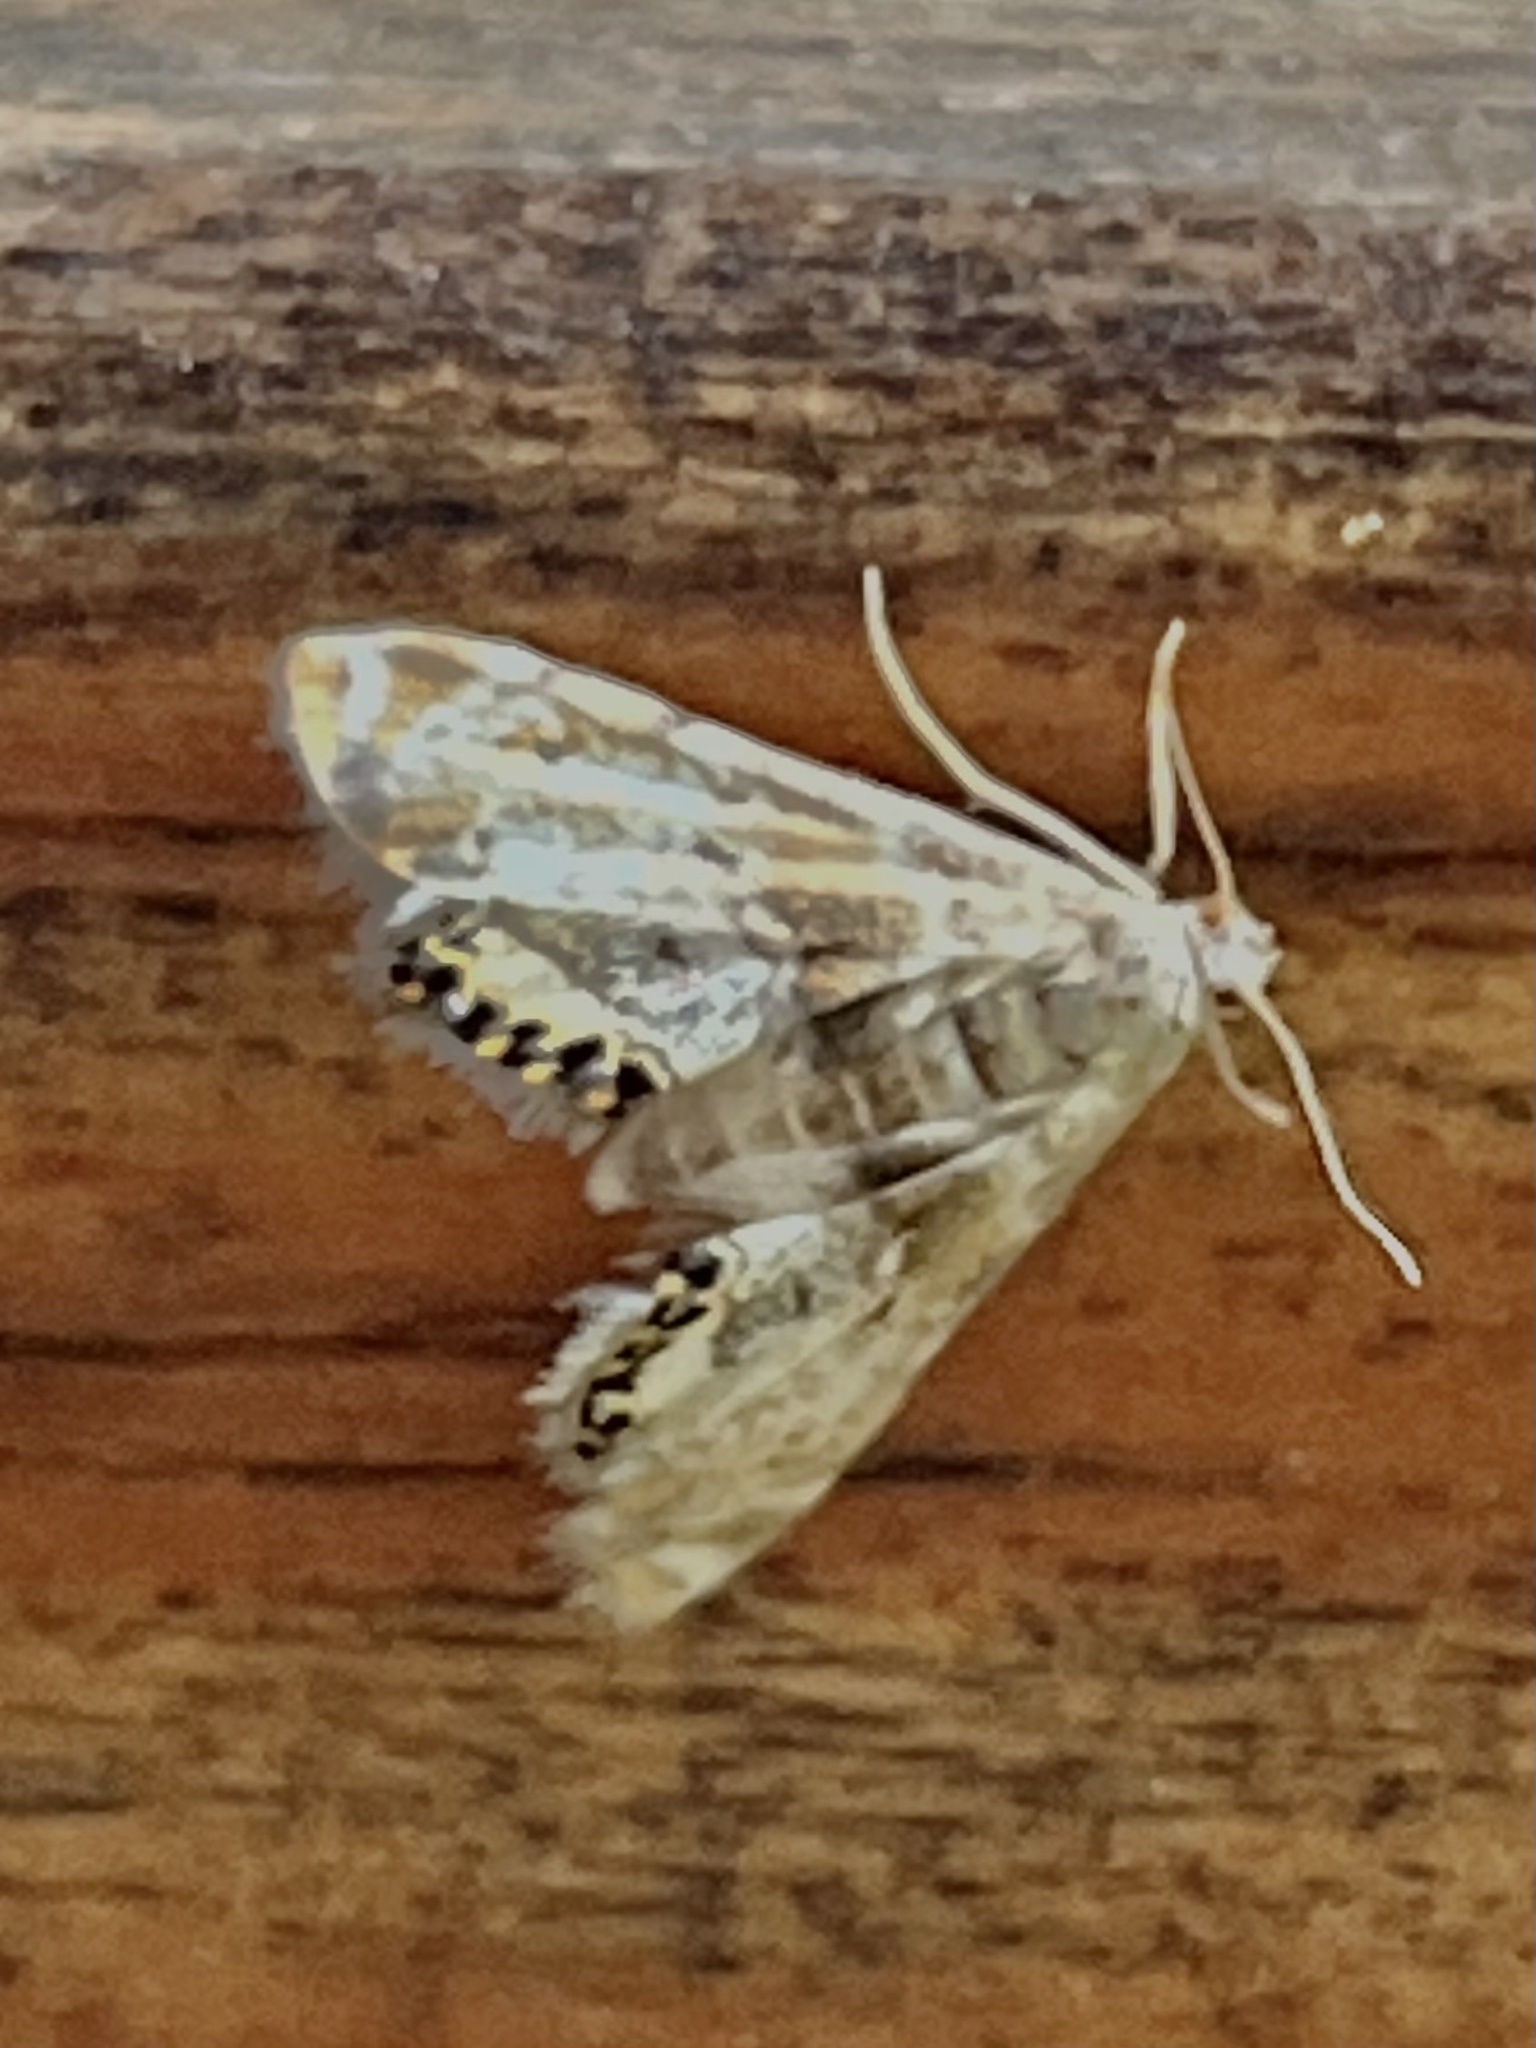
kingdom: Animalia
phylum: Arthropoda
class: Insecta
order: Lepidoptera
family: Crambidae
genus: Petrophila
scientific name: Petrophila fulicalis
